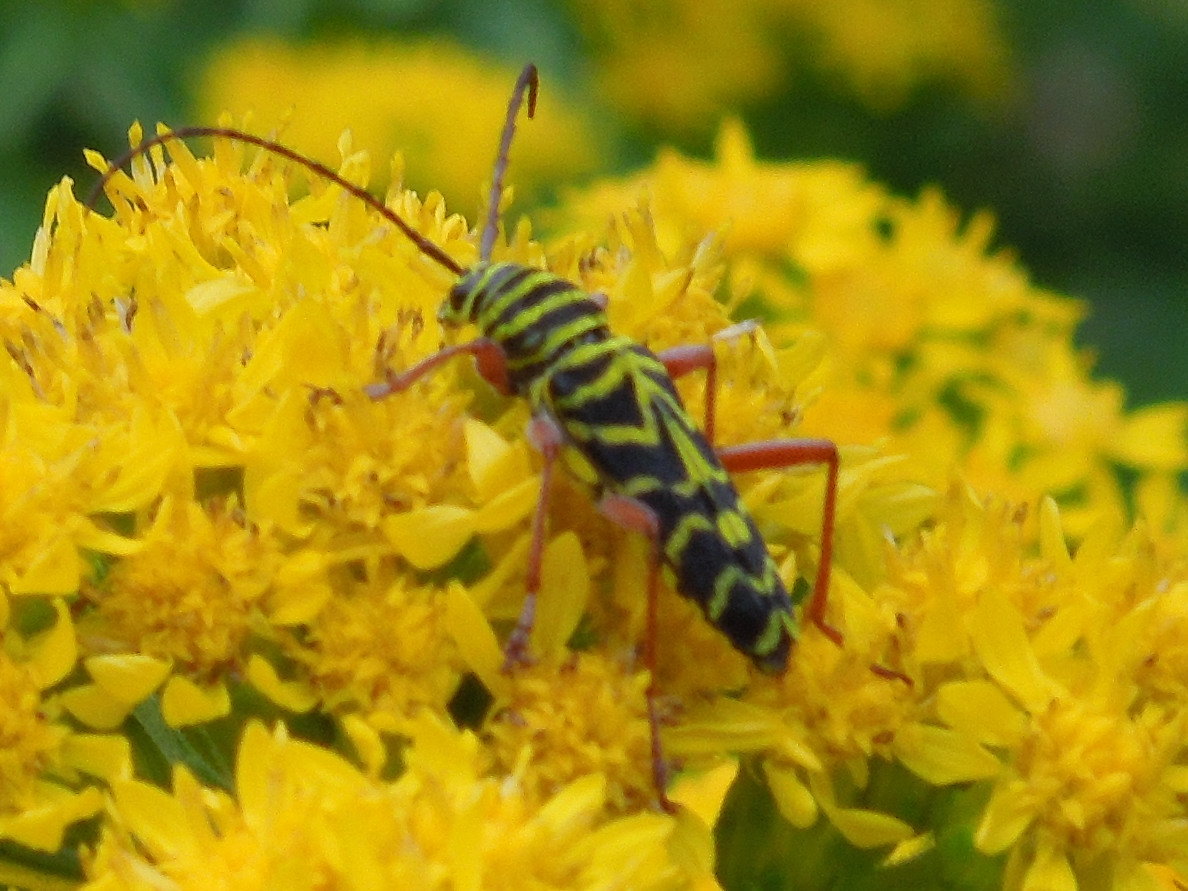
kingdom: Animalia
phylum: Arthropoda
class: Insecta
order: Coleoptera
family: Cerambycidae
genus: Megacyllene
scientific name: Megacyllene robiniae
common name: Locust borer
